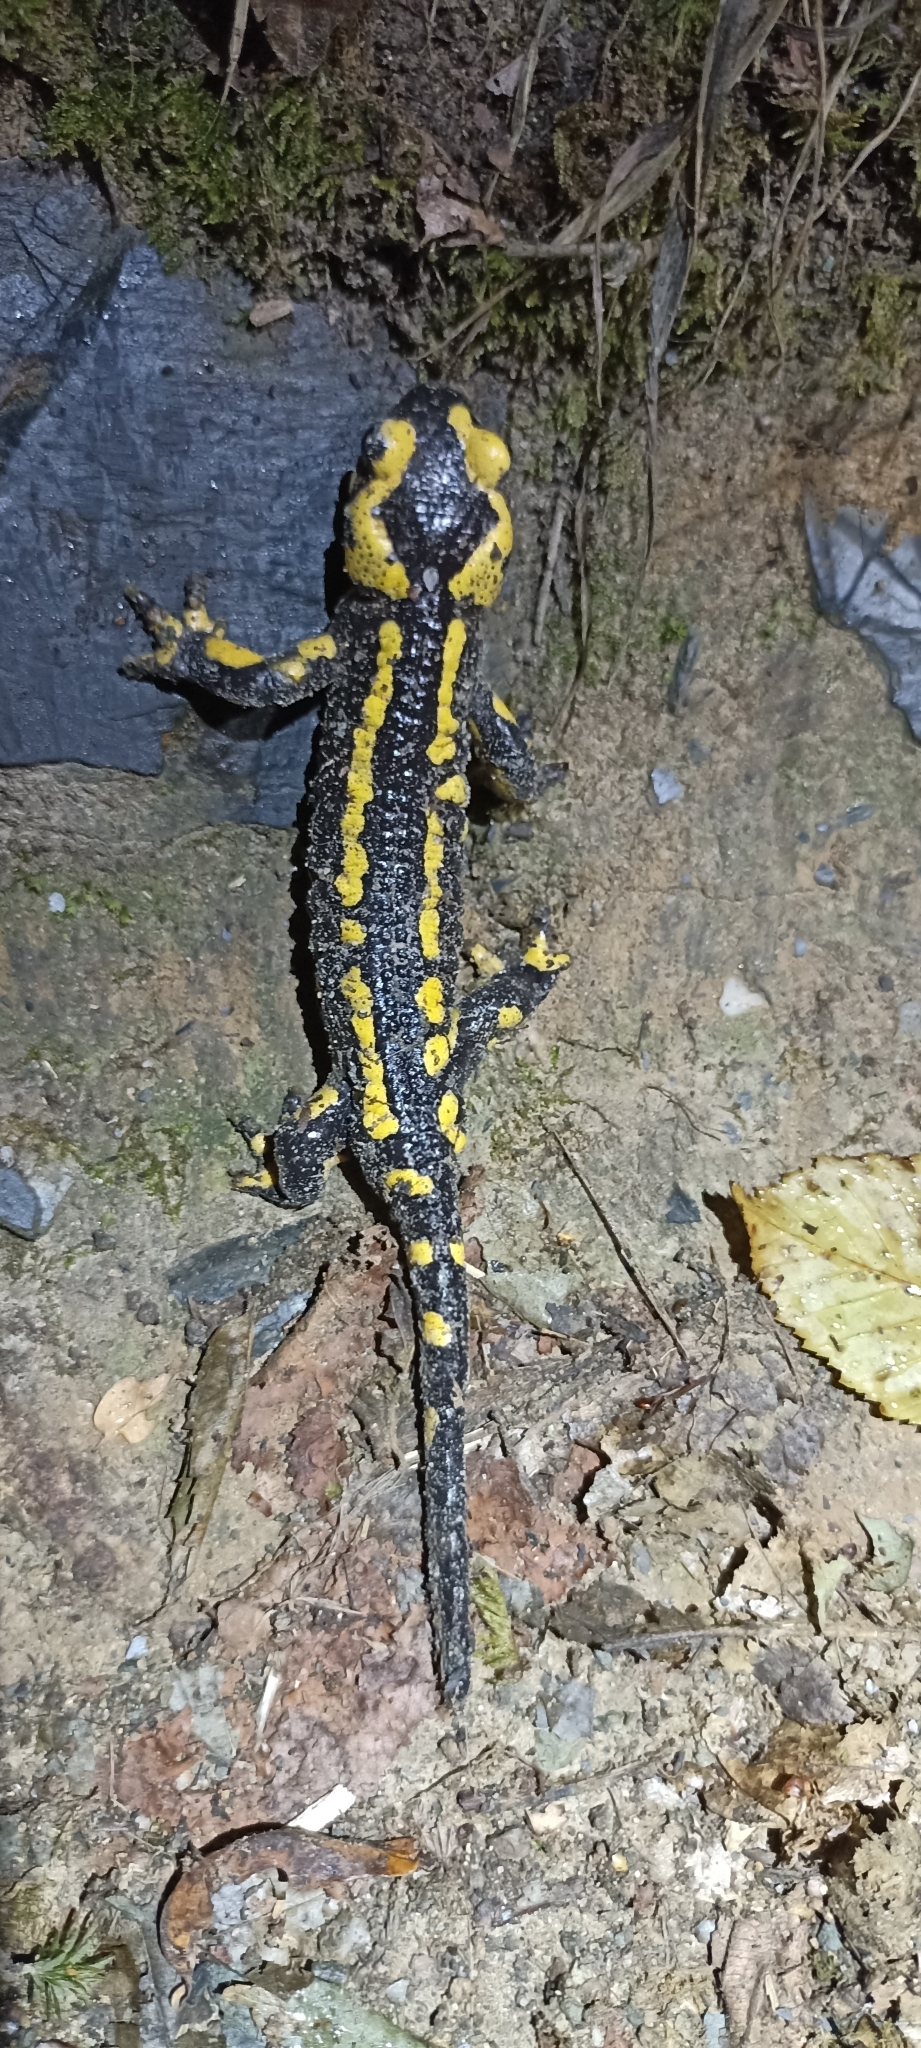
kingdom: Animalia
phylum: Chordata
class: Amphibia
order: Caudata
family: Salamandridae
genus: Salamandra
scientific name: Salamandra salamandra
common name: Fire salamander
